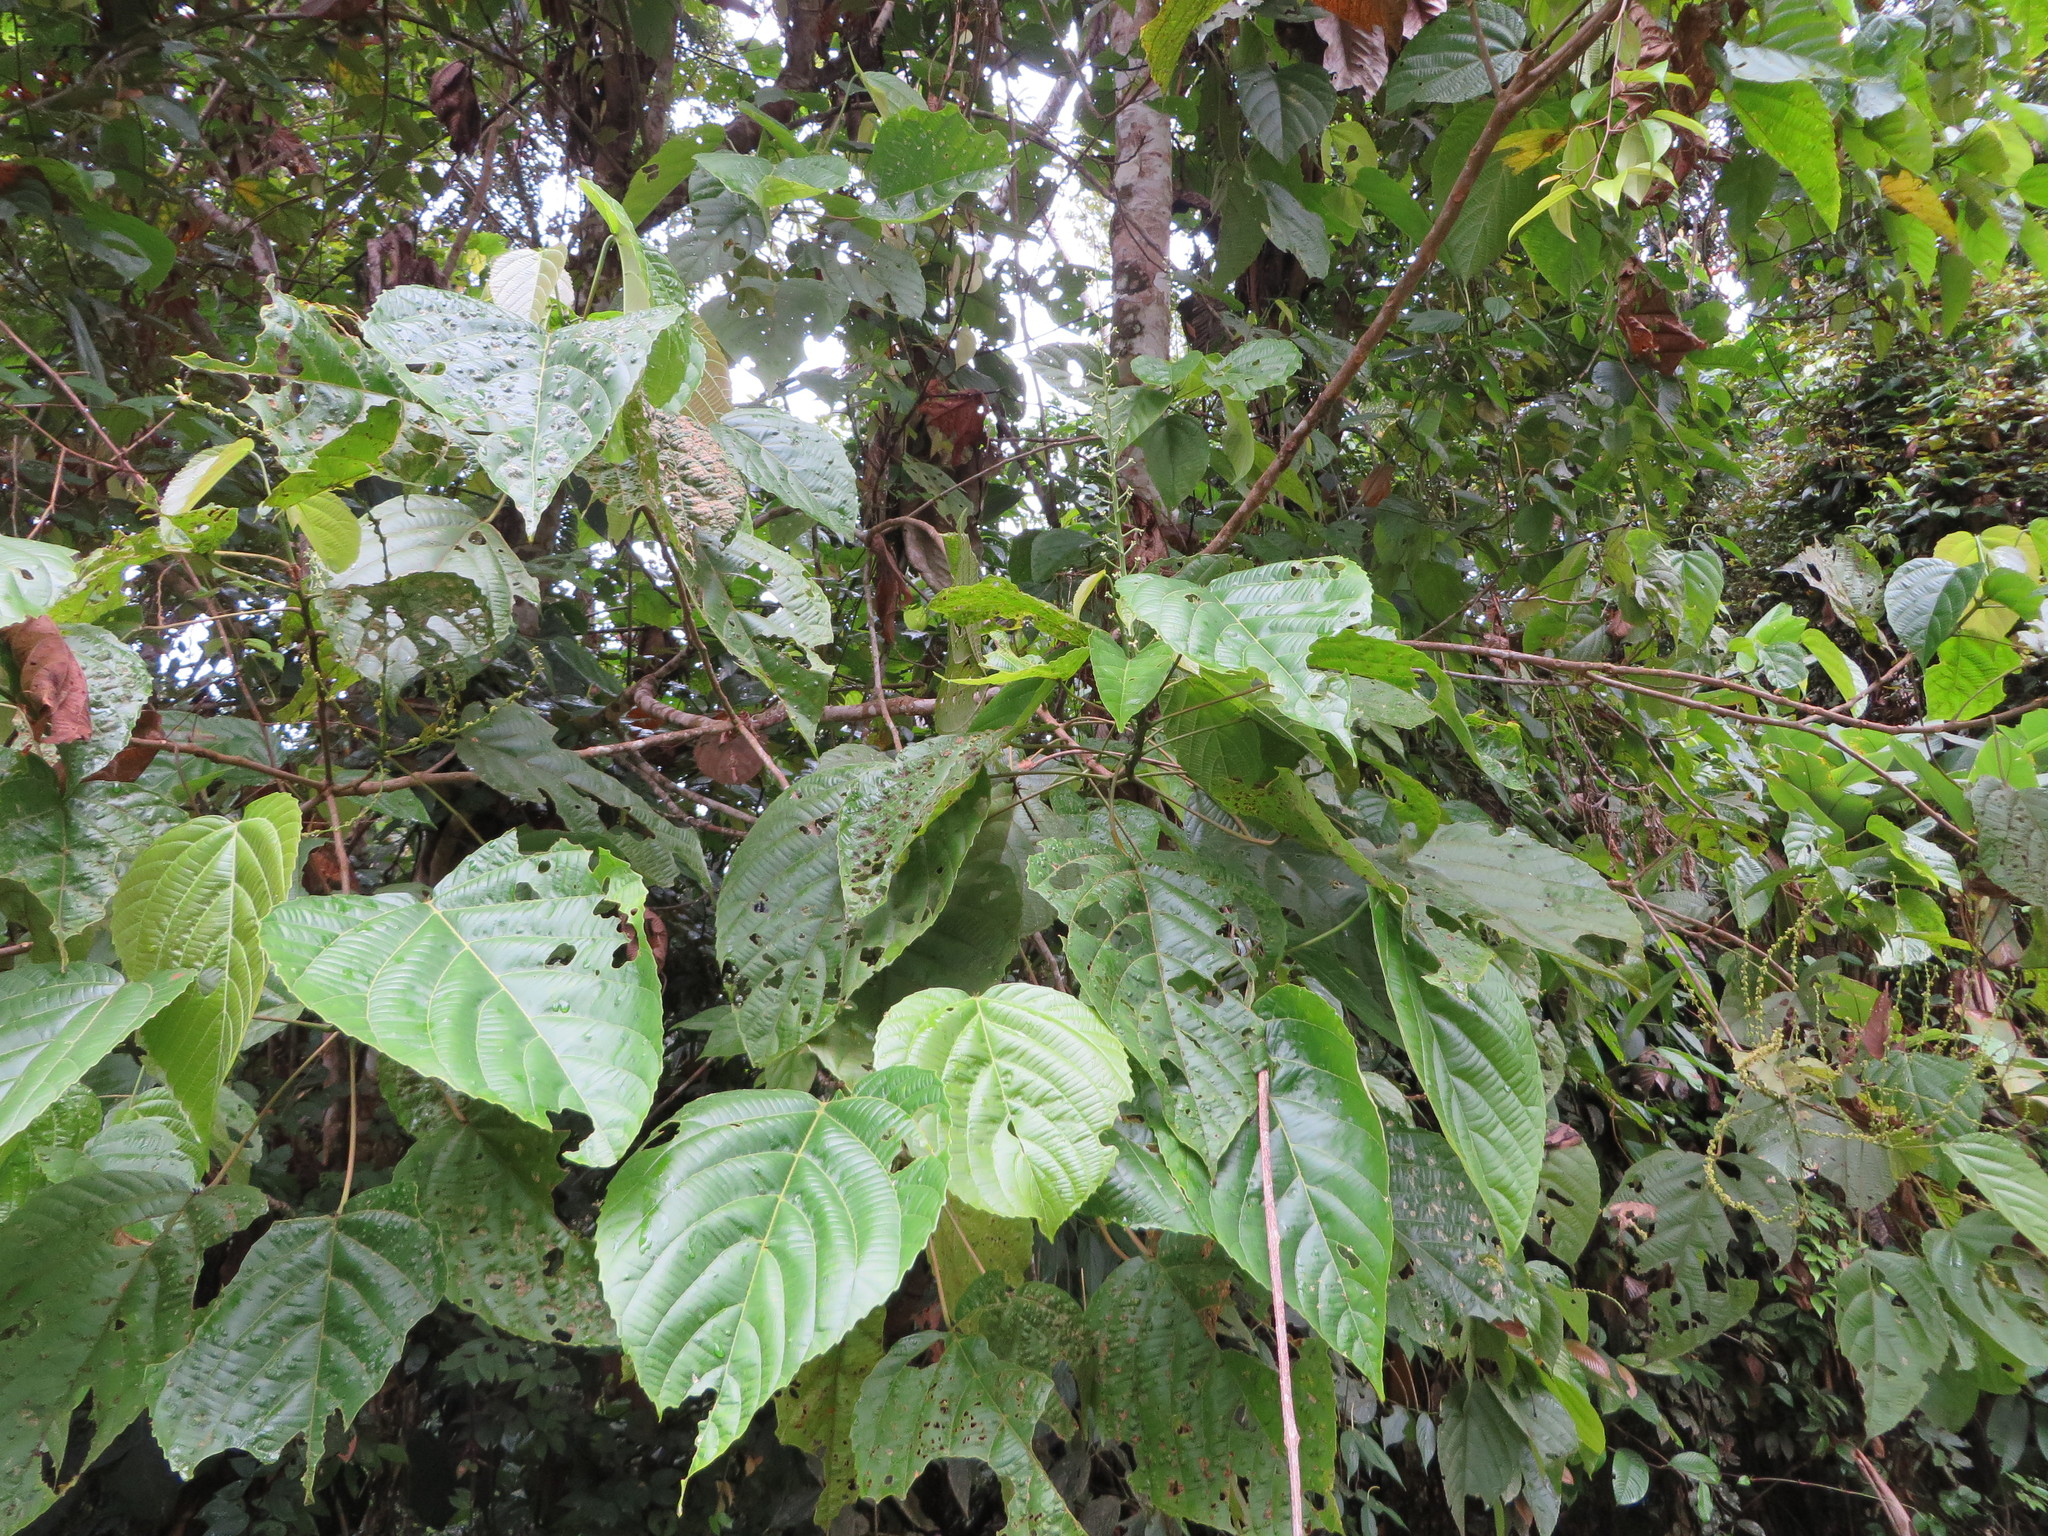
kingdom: Plantae
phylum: Tracheophyta
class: Magnoliopsida
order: Malpighiales
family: Euphorbiaceae
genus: Aparisthmium
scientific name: Aparisthmium cordatum
